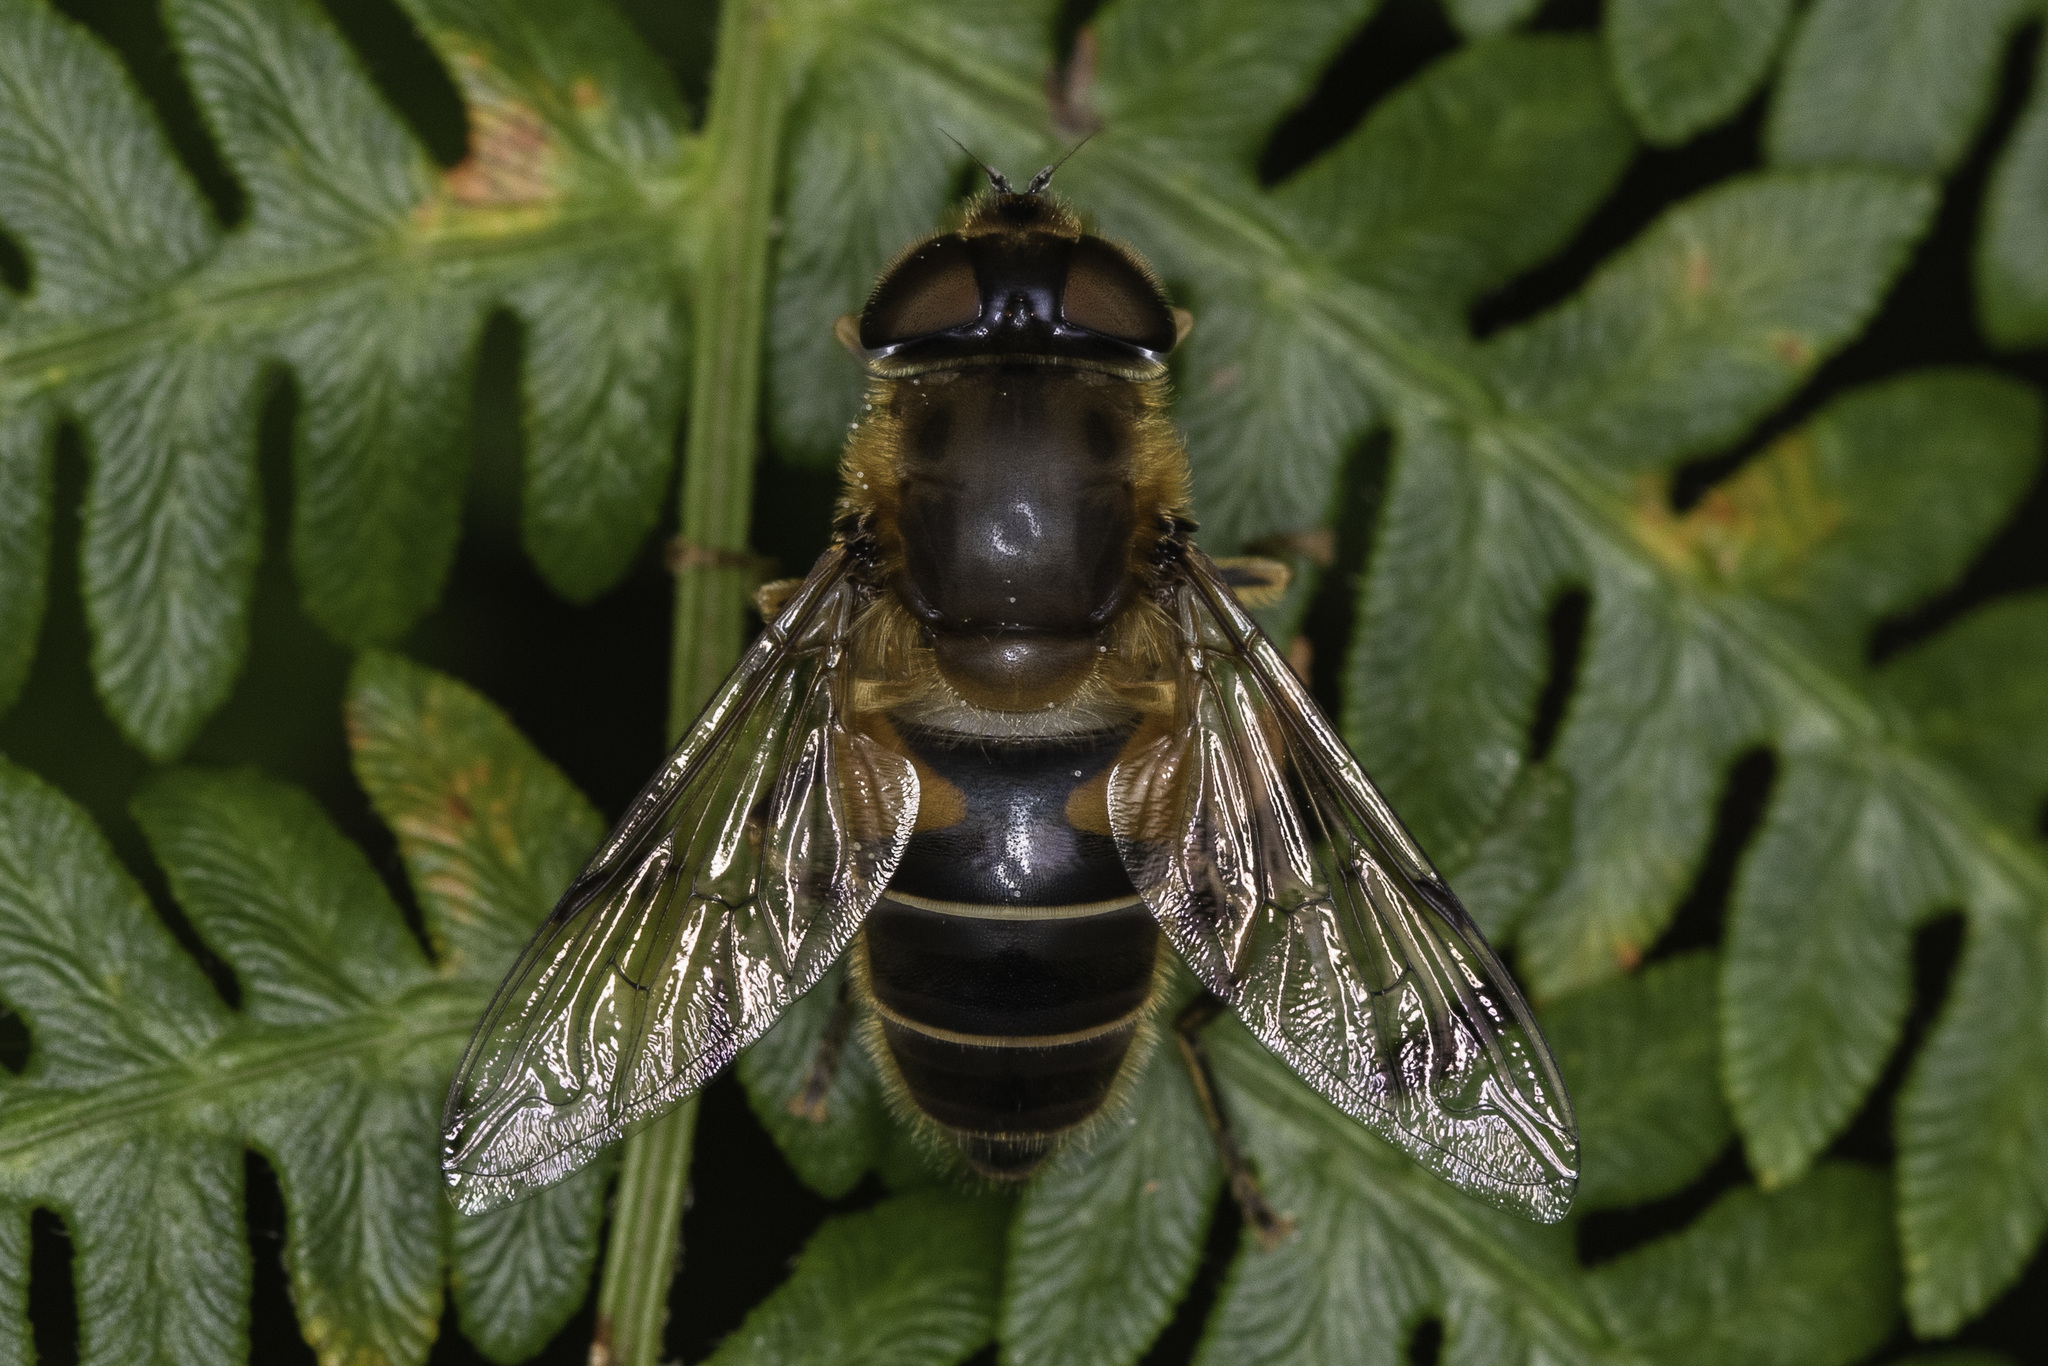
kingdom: Animalia
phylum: Arthropoda
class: Insecta
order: Diptera
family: Syrphidae
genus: Eristalis
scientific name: Eristalis pertinax
